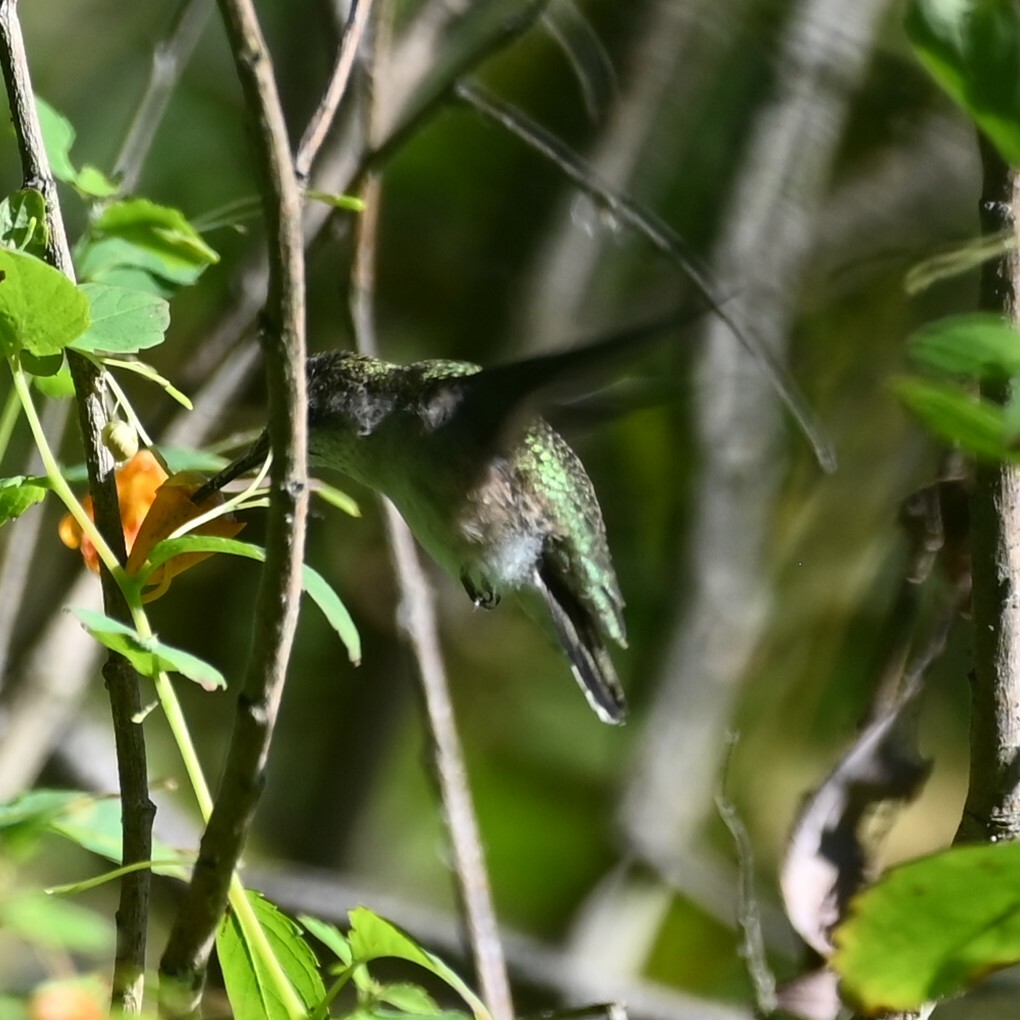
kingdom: Animalia
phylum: Chordata
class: Aves
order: Apodiformes
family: Trochilidae
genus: Archilochus
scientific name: Archilochus colubris
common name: Ruby-throated hummingbird
